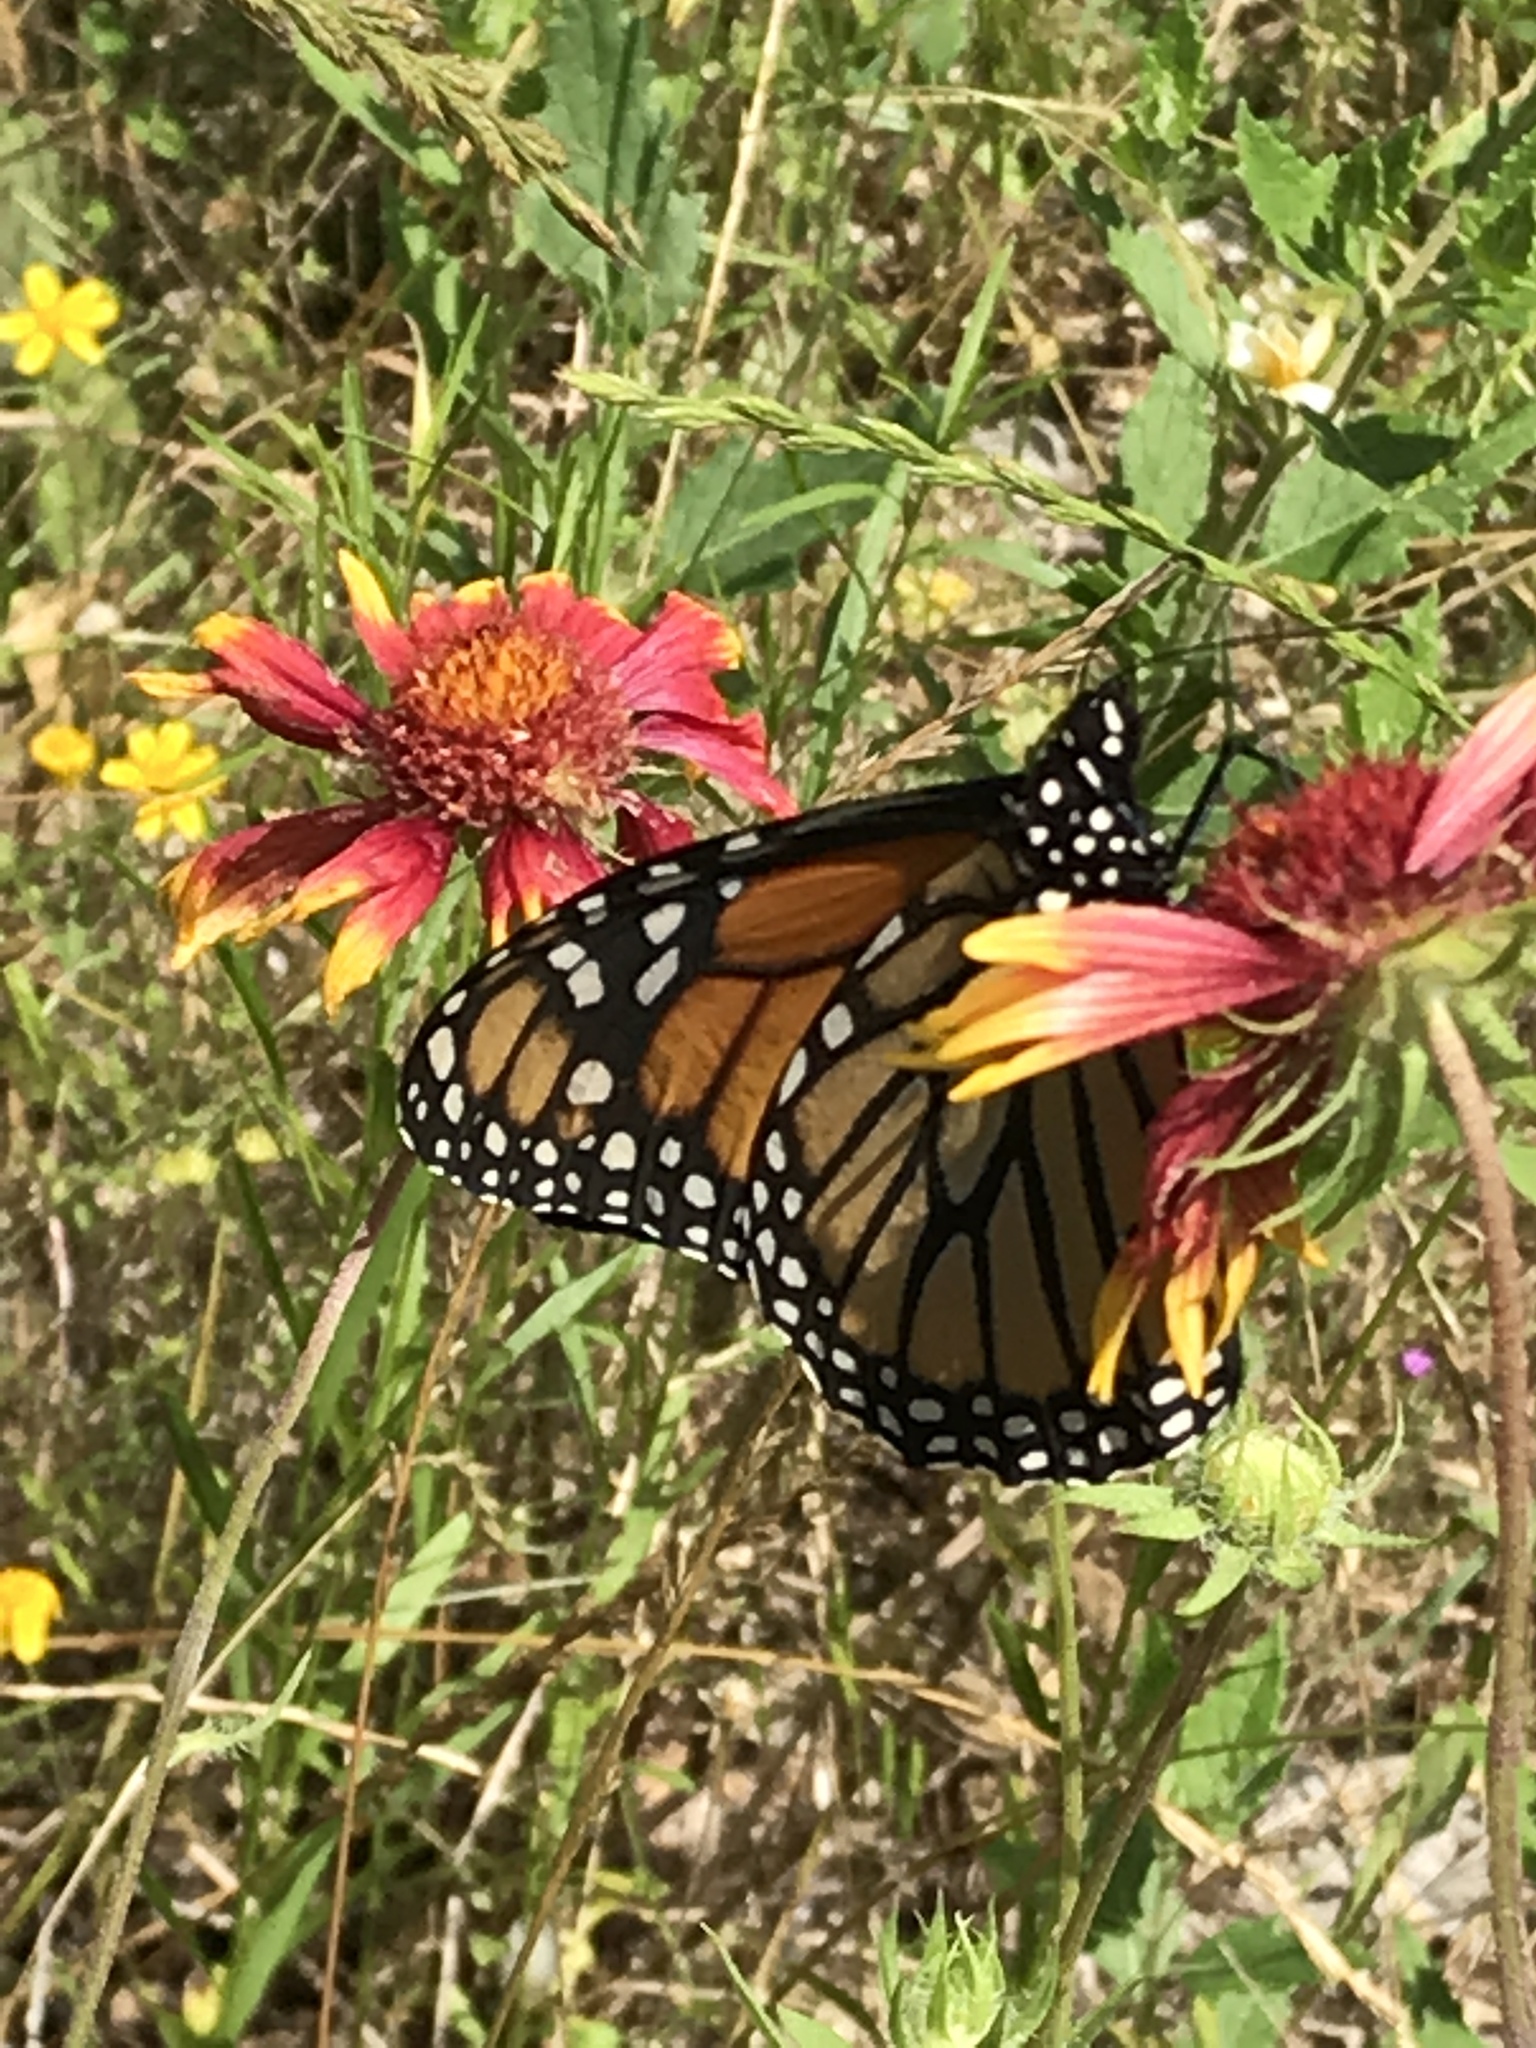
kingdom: Animalia
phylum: Arthropoda
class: Insecta
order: Lepidoptera
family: Nymphalidae
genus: Danaus
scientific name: Danaus plexippus
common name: Monarch
